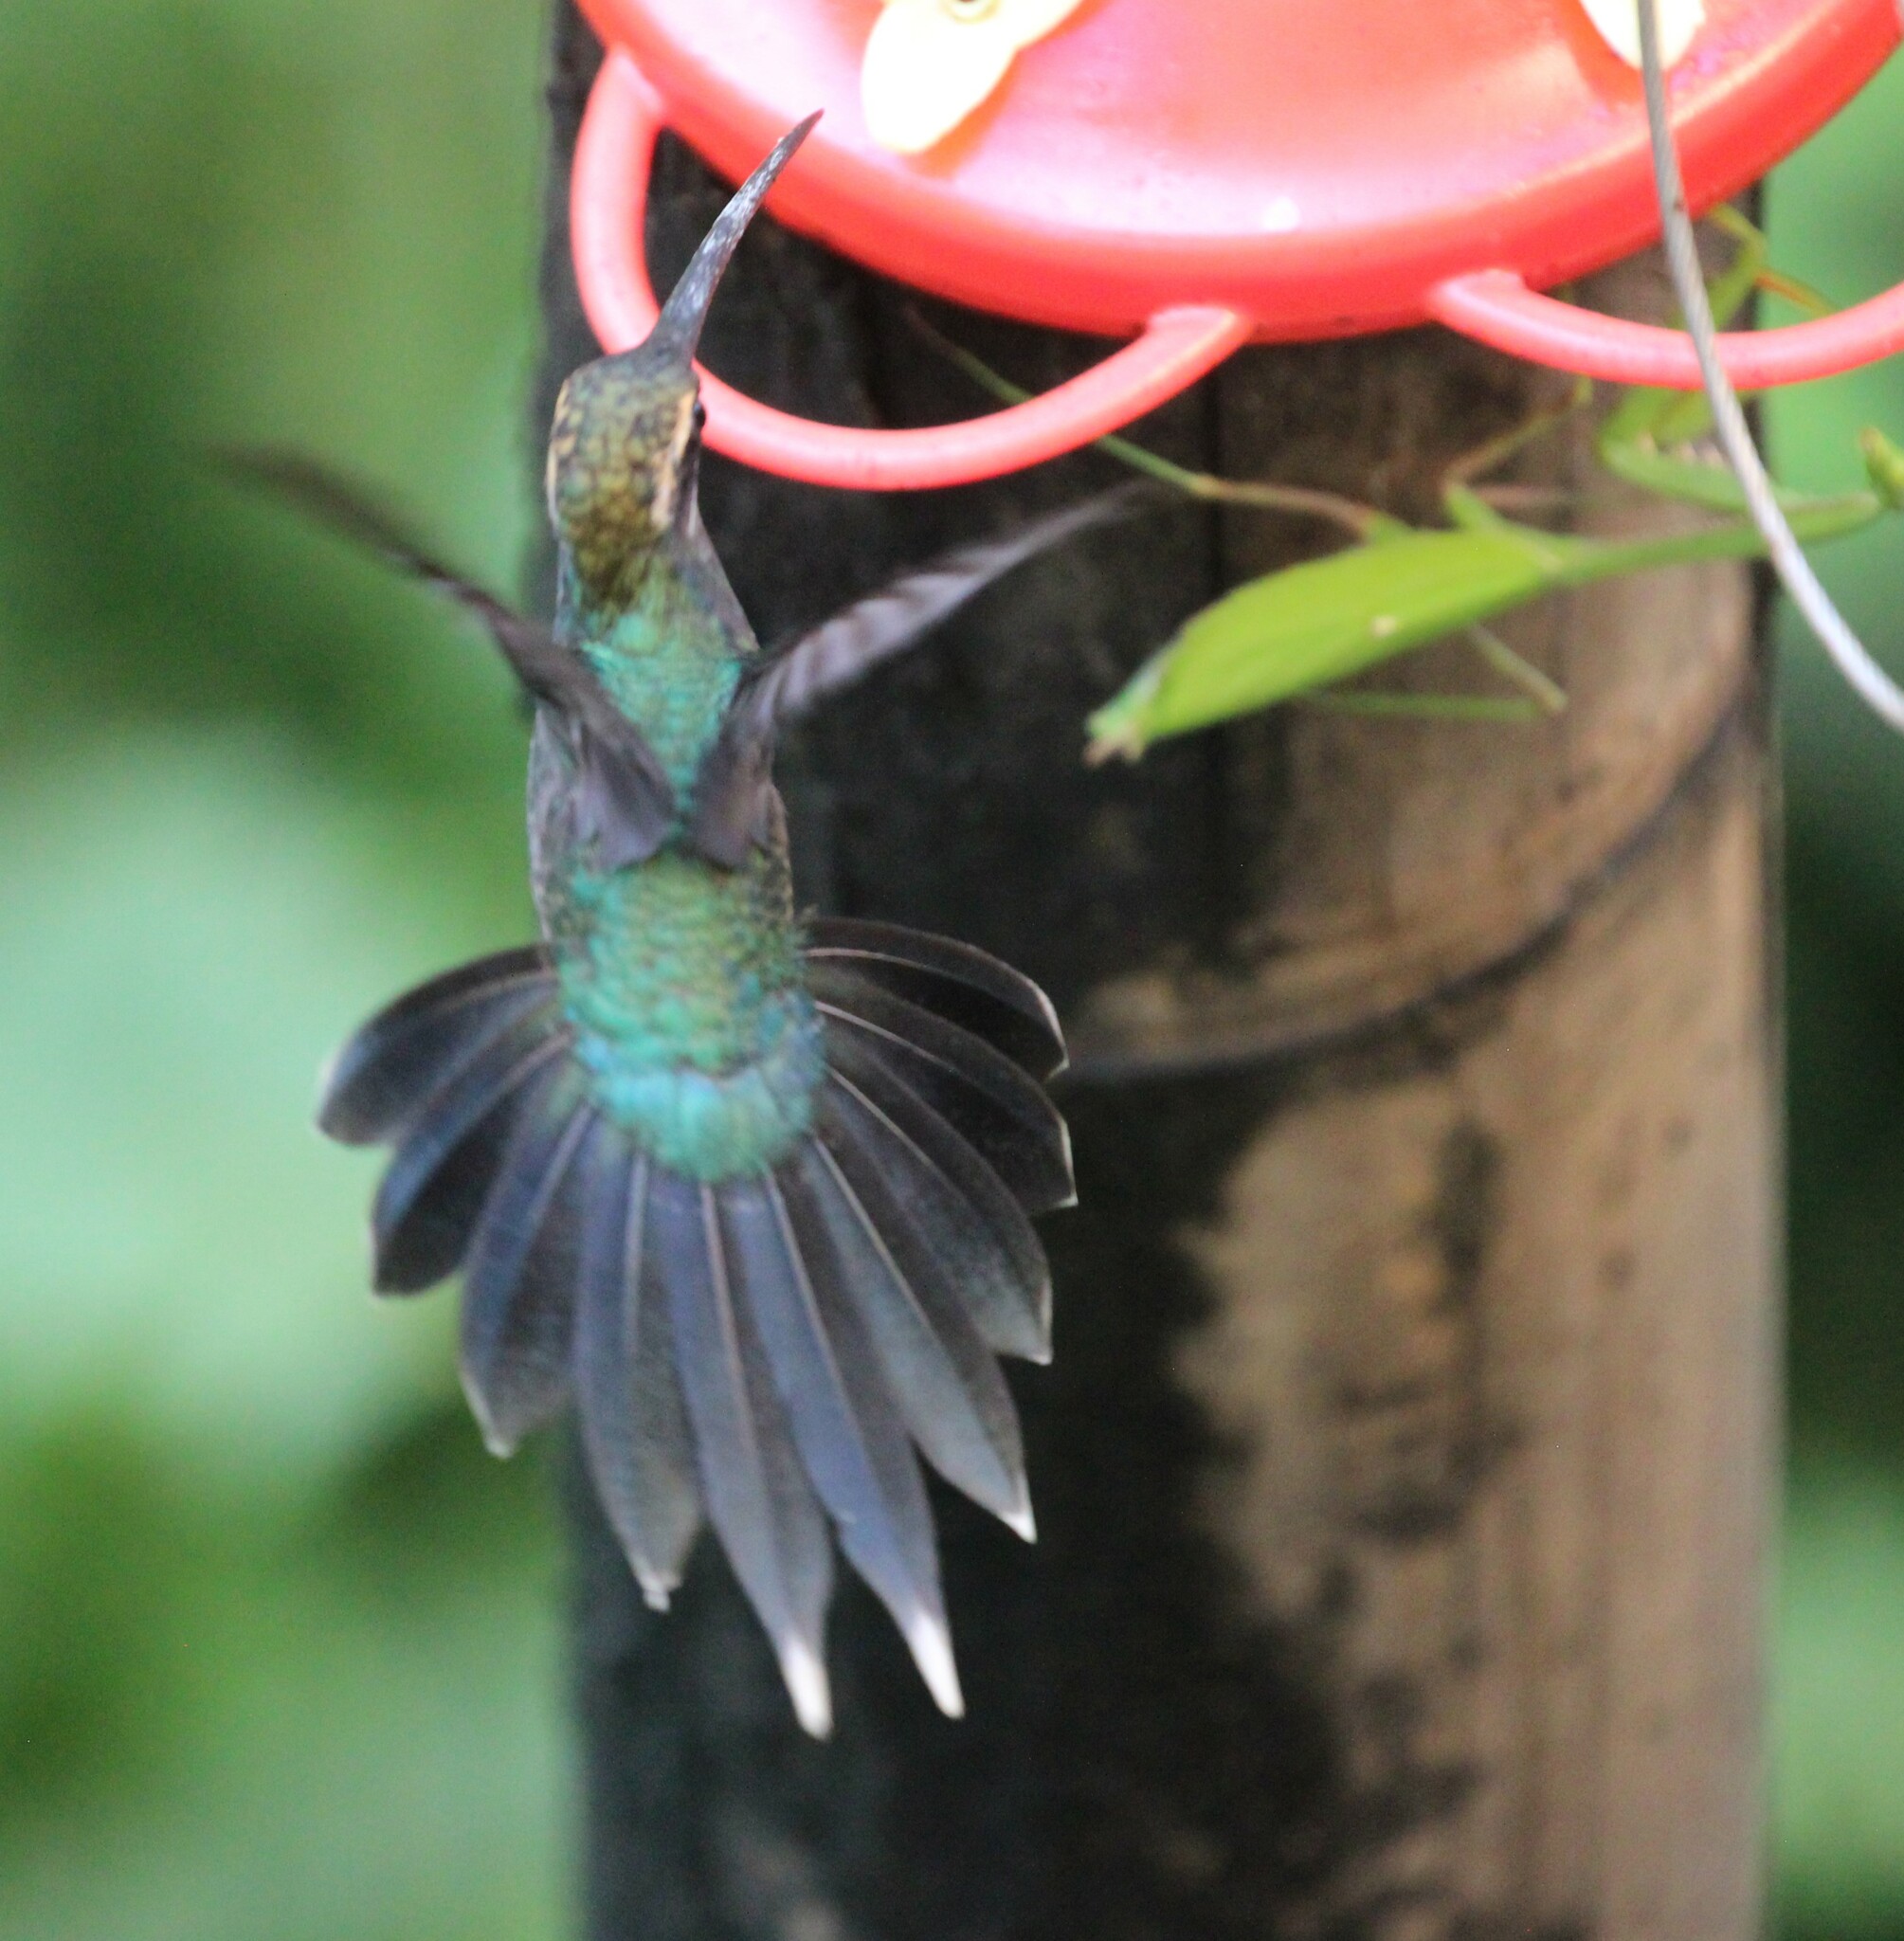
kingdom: Animalia
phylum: Chordata
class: Aves
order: Apodiformes
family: Trochilidae
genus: Phaethornis
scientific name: Phaethornis yaruqui
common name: White-whiskered hermit
